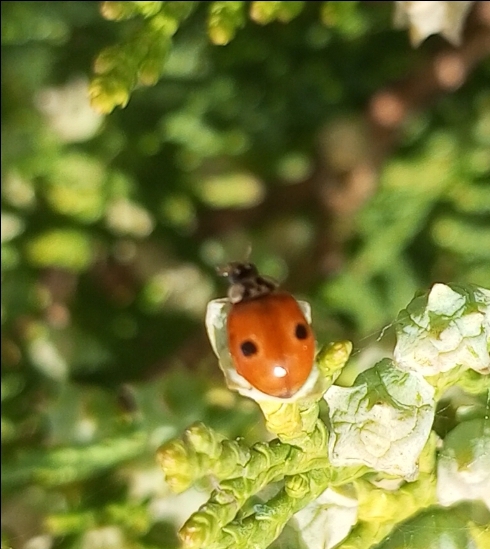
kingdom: Animalia
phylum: Arthropoda
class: Insecta
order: Coleoptera
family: Coccinellidae
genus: Adalia
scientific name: Adalia bipunctata
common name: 2-spot ladybird
